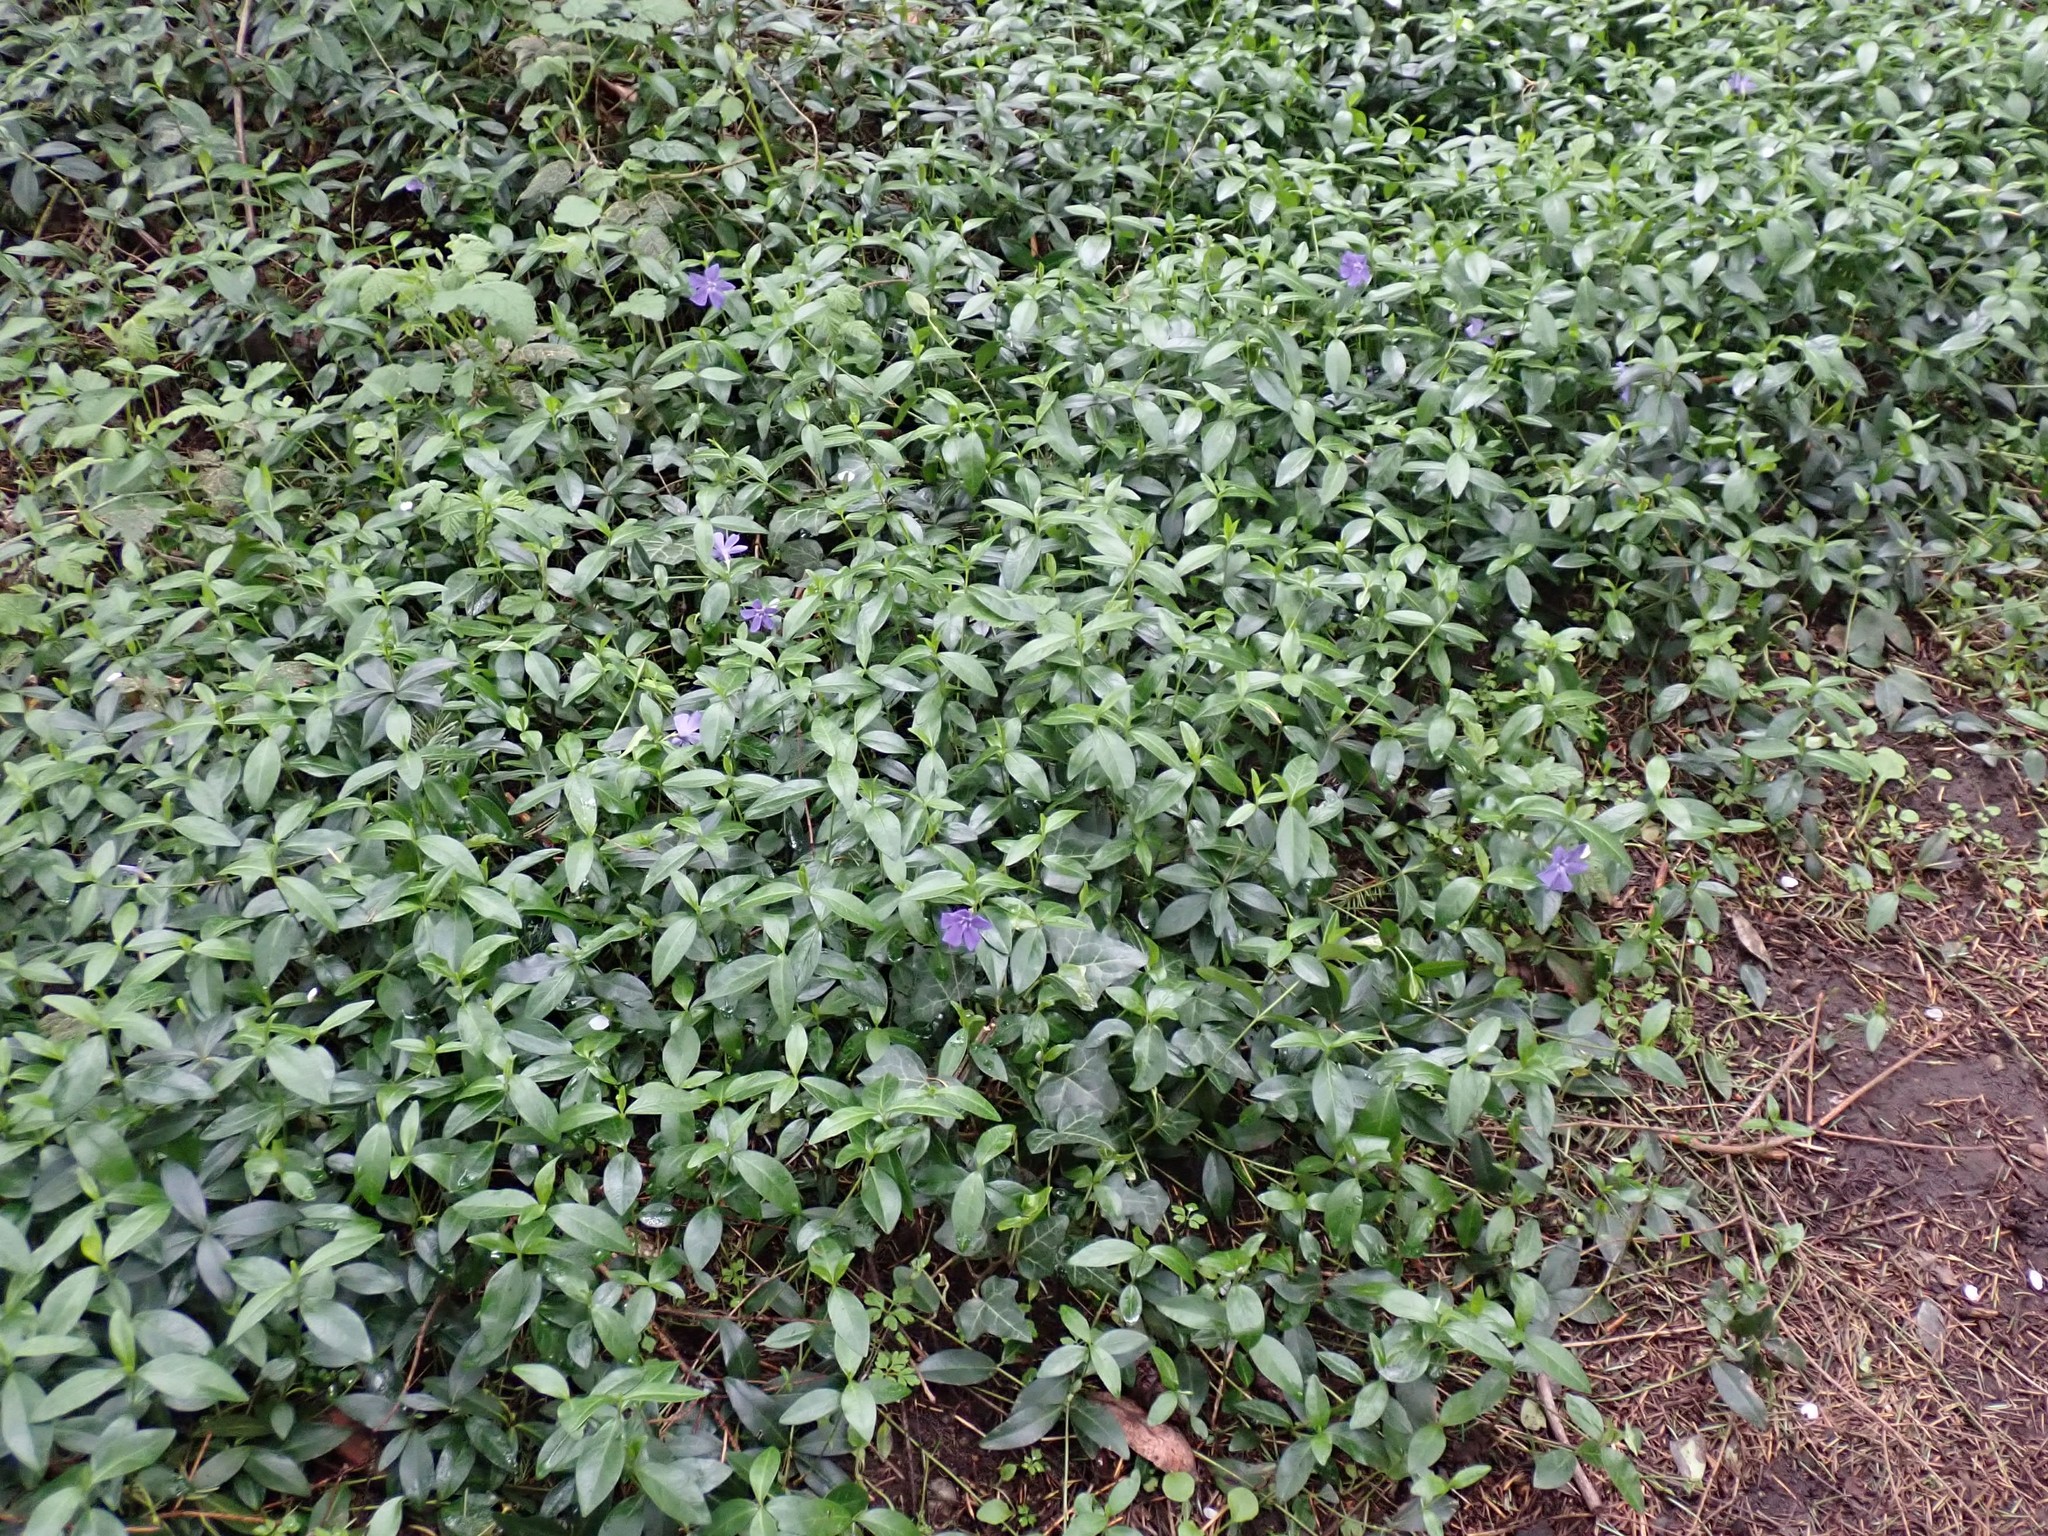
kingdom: Plantae
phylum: Tracheophyta
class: Magnoliopsida
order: Gentianales
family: Apocynaceae
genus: Vinca
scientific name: Vinca minor
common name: Lesser periwinkle
